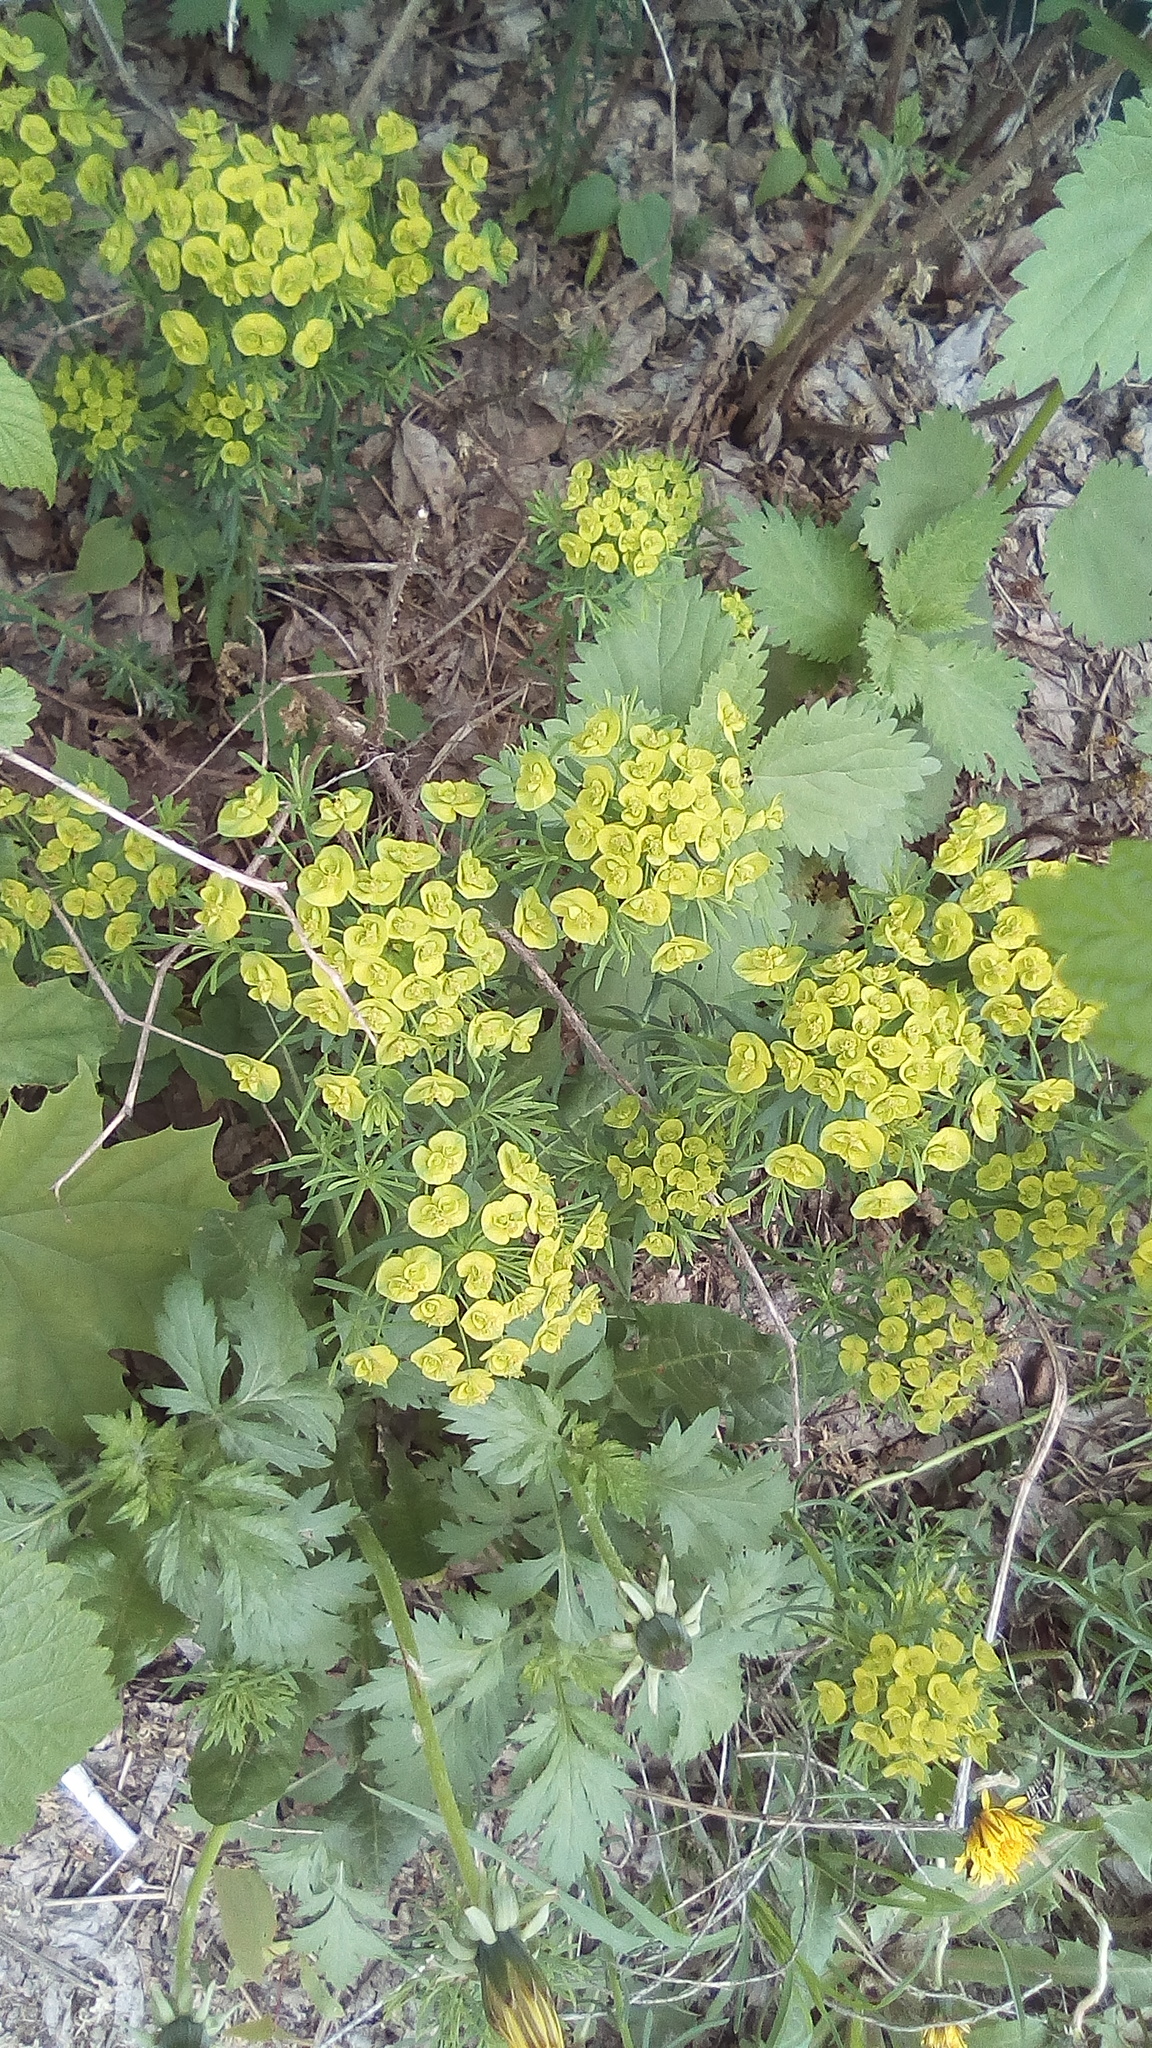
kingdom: Plantae
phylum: Tracheophyta
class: Magnoliopsida
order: Malpighiales
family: Euphorbiaceae
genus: Euphorbia
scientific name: Euphorbia cyparissias
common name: Cypress spurge
